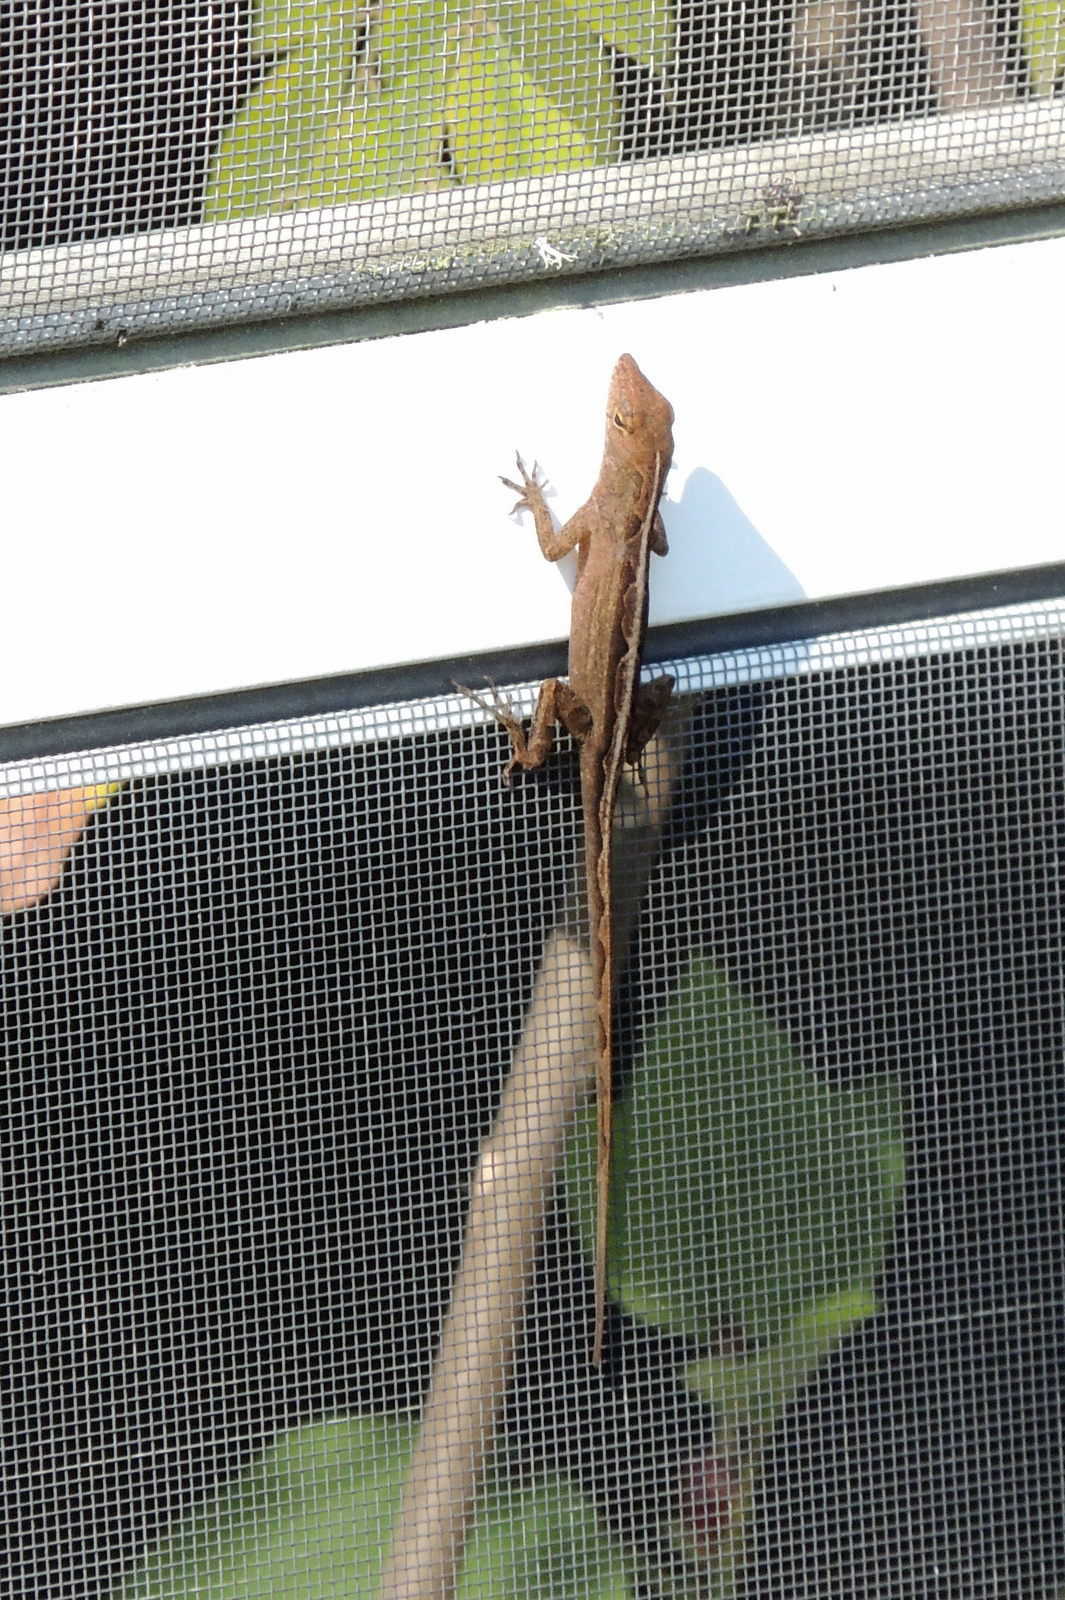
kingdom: Animalia
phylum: Chordata
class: Squamata
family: Dactyloidae
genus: Anolis
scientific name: Anolis sagrei
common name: Brown anole
